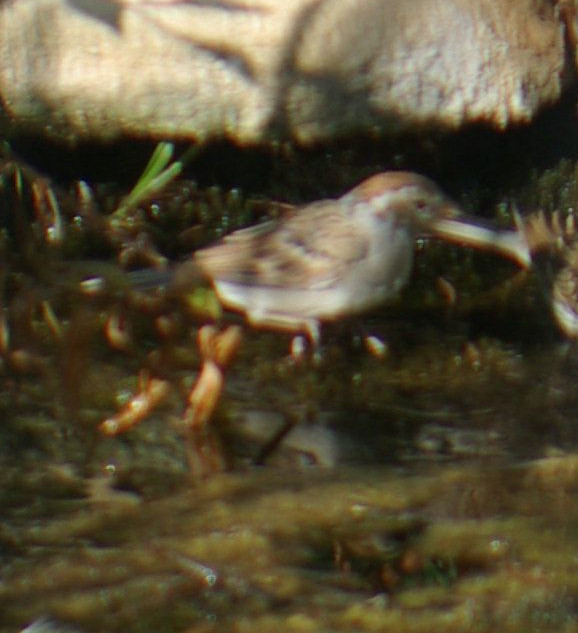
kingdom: Animalia
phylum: Chordata
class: Aves
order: Passeriformes
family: Passerellidae
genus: Spizella
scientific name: Spizella passerina
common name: Chipping sparrow
